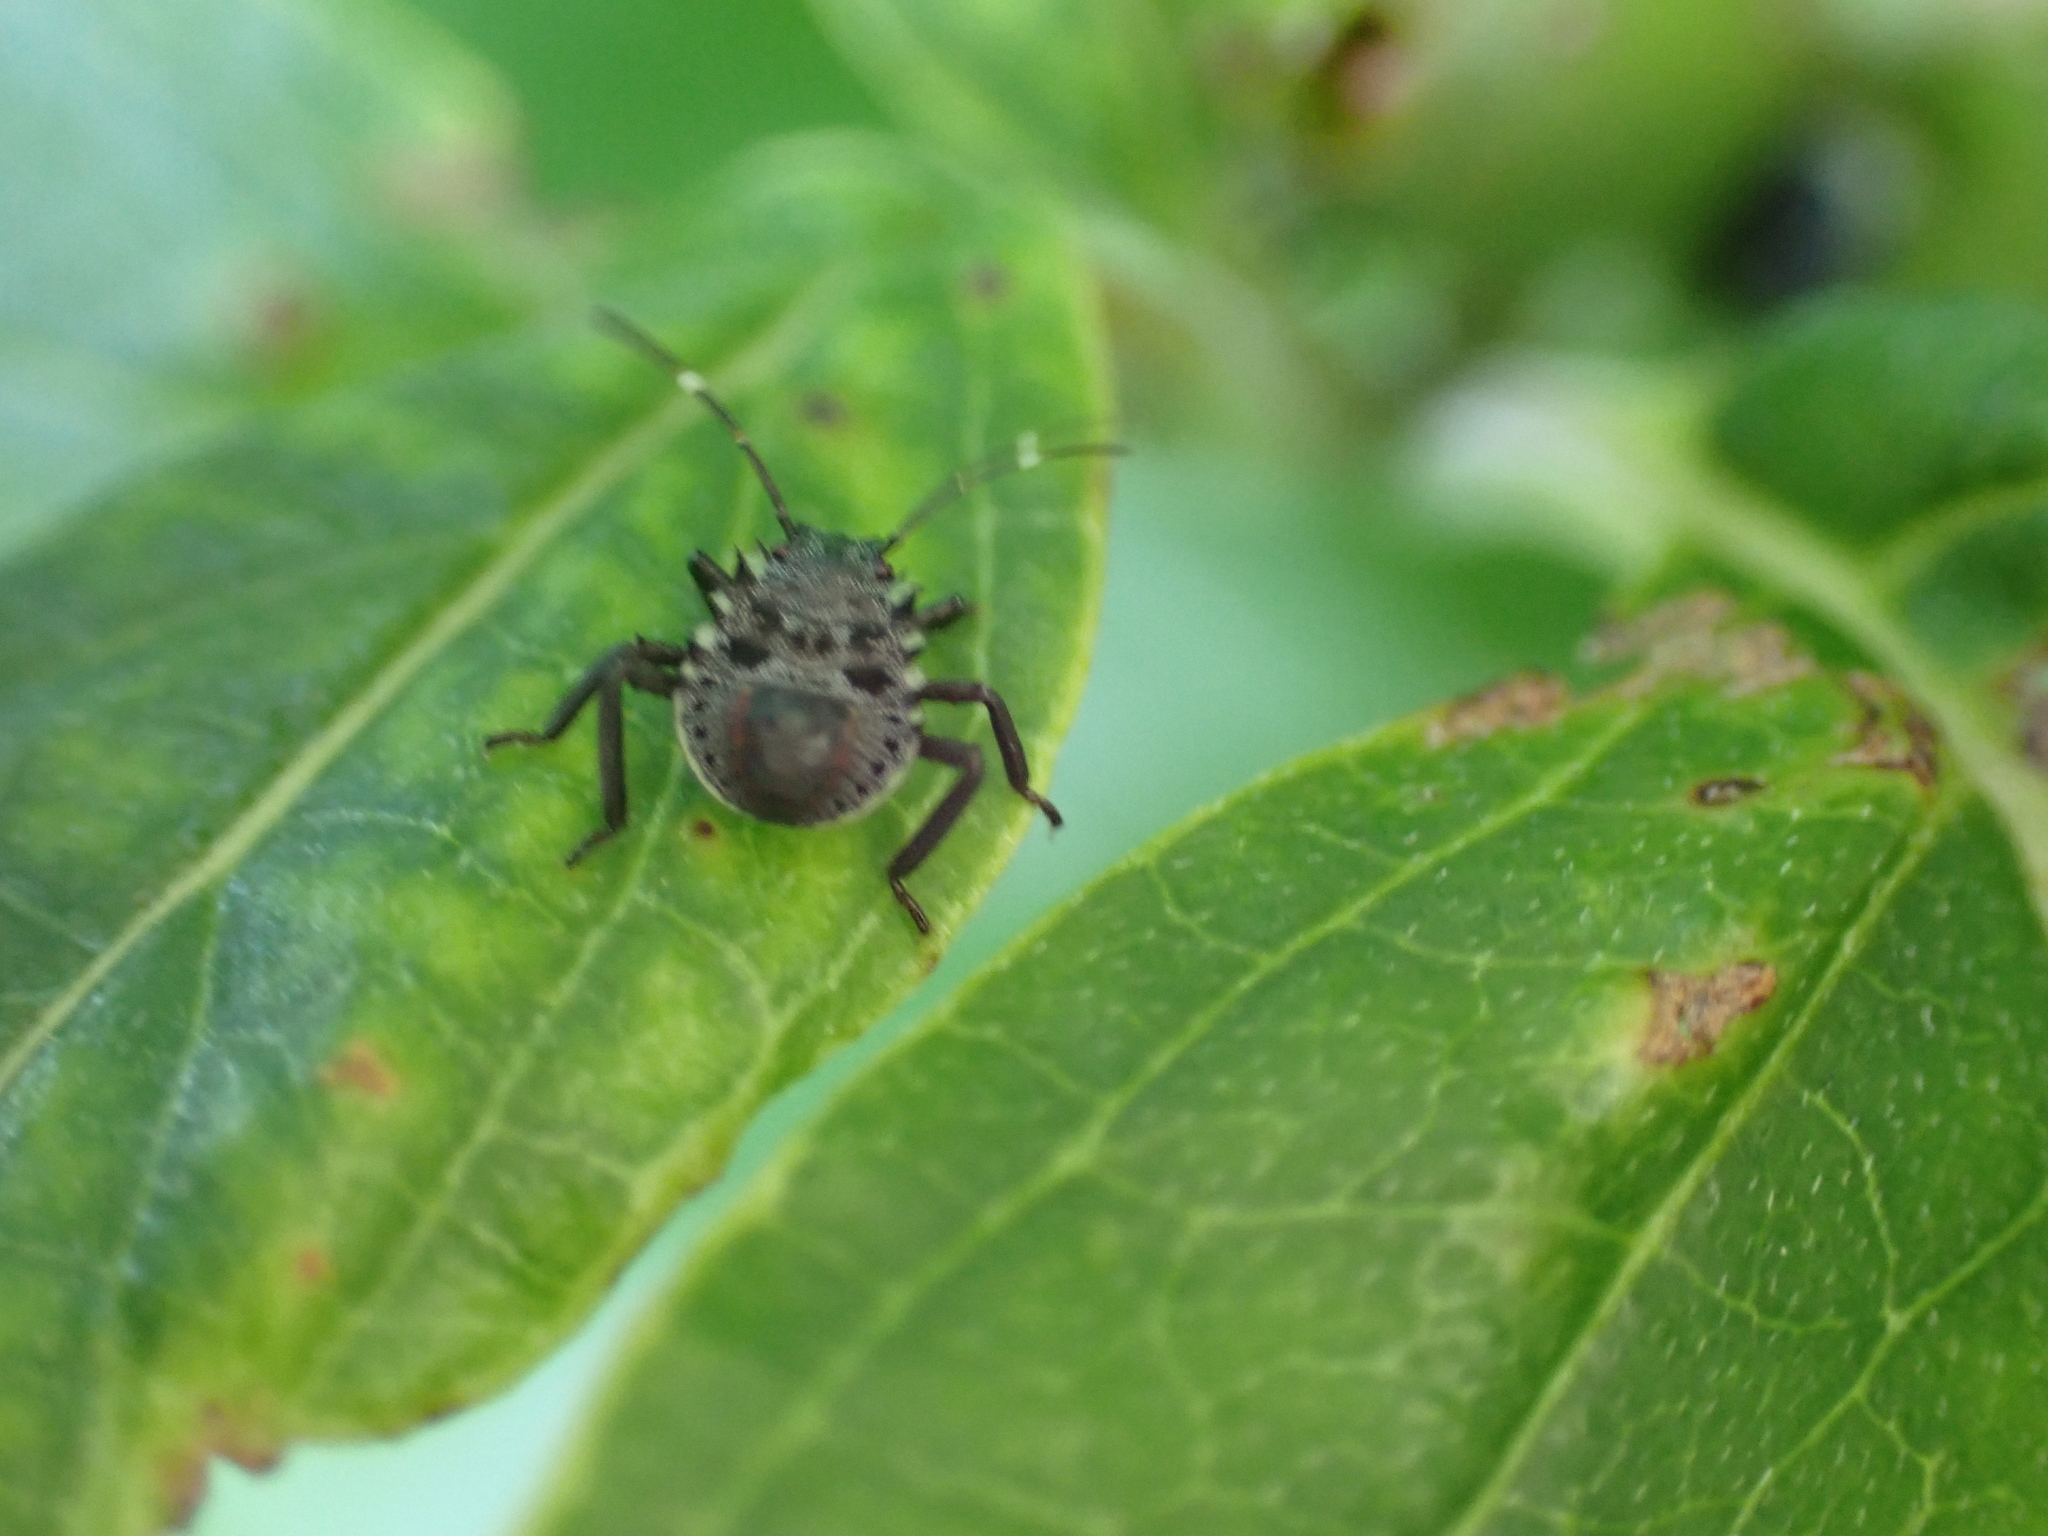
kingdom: Animalia
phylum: Arthropoda
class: Insecta
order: Hemiptera
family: Pentatomidae
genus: Halyomorpha
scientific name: Halyomorpha halys
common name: Brown marmorated stink bug
